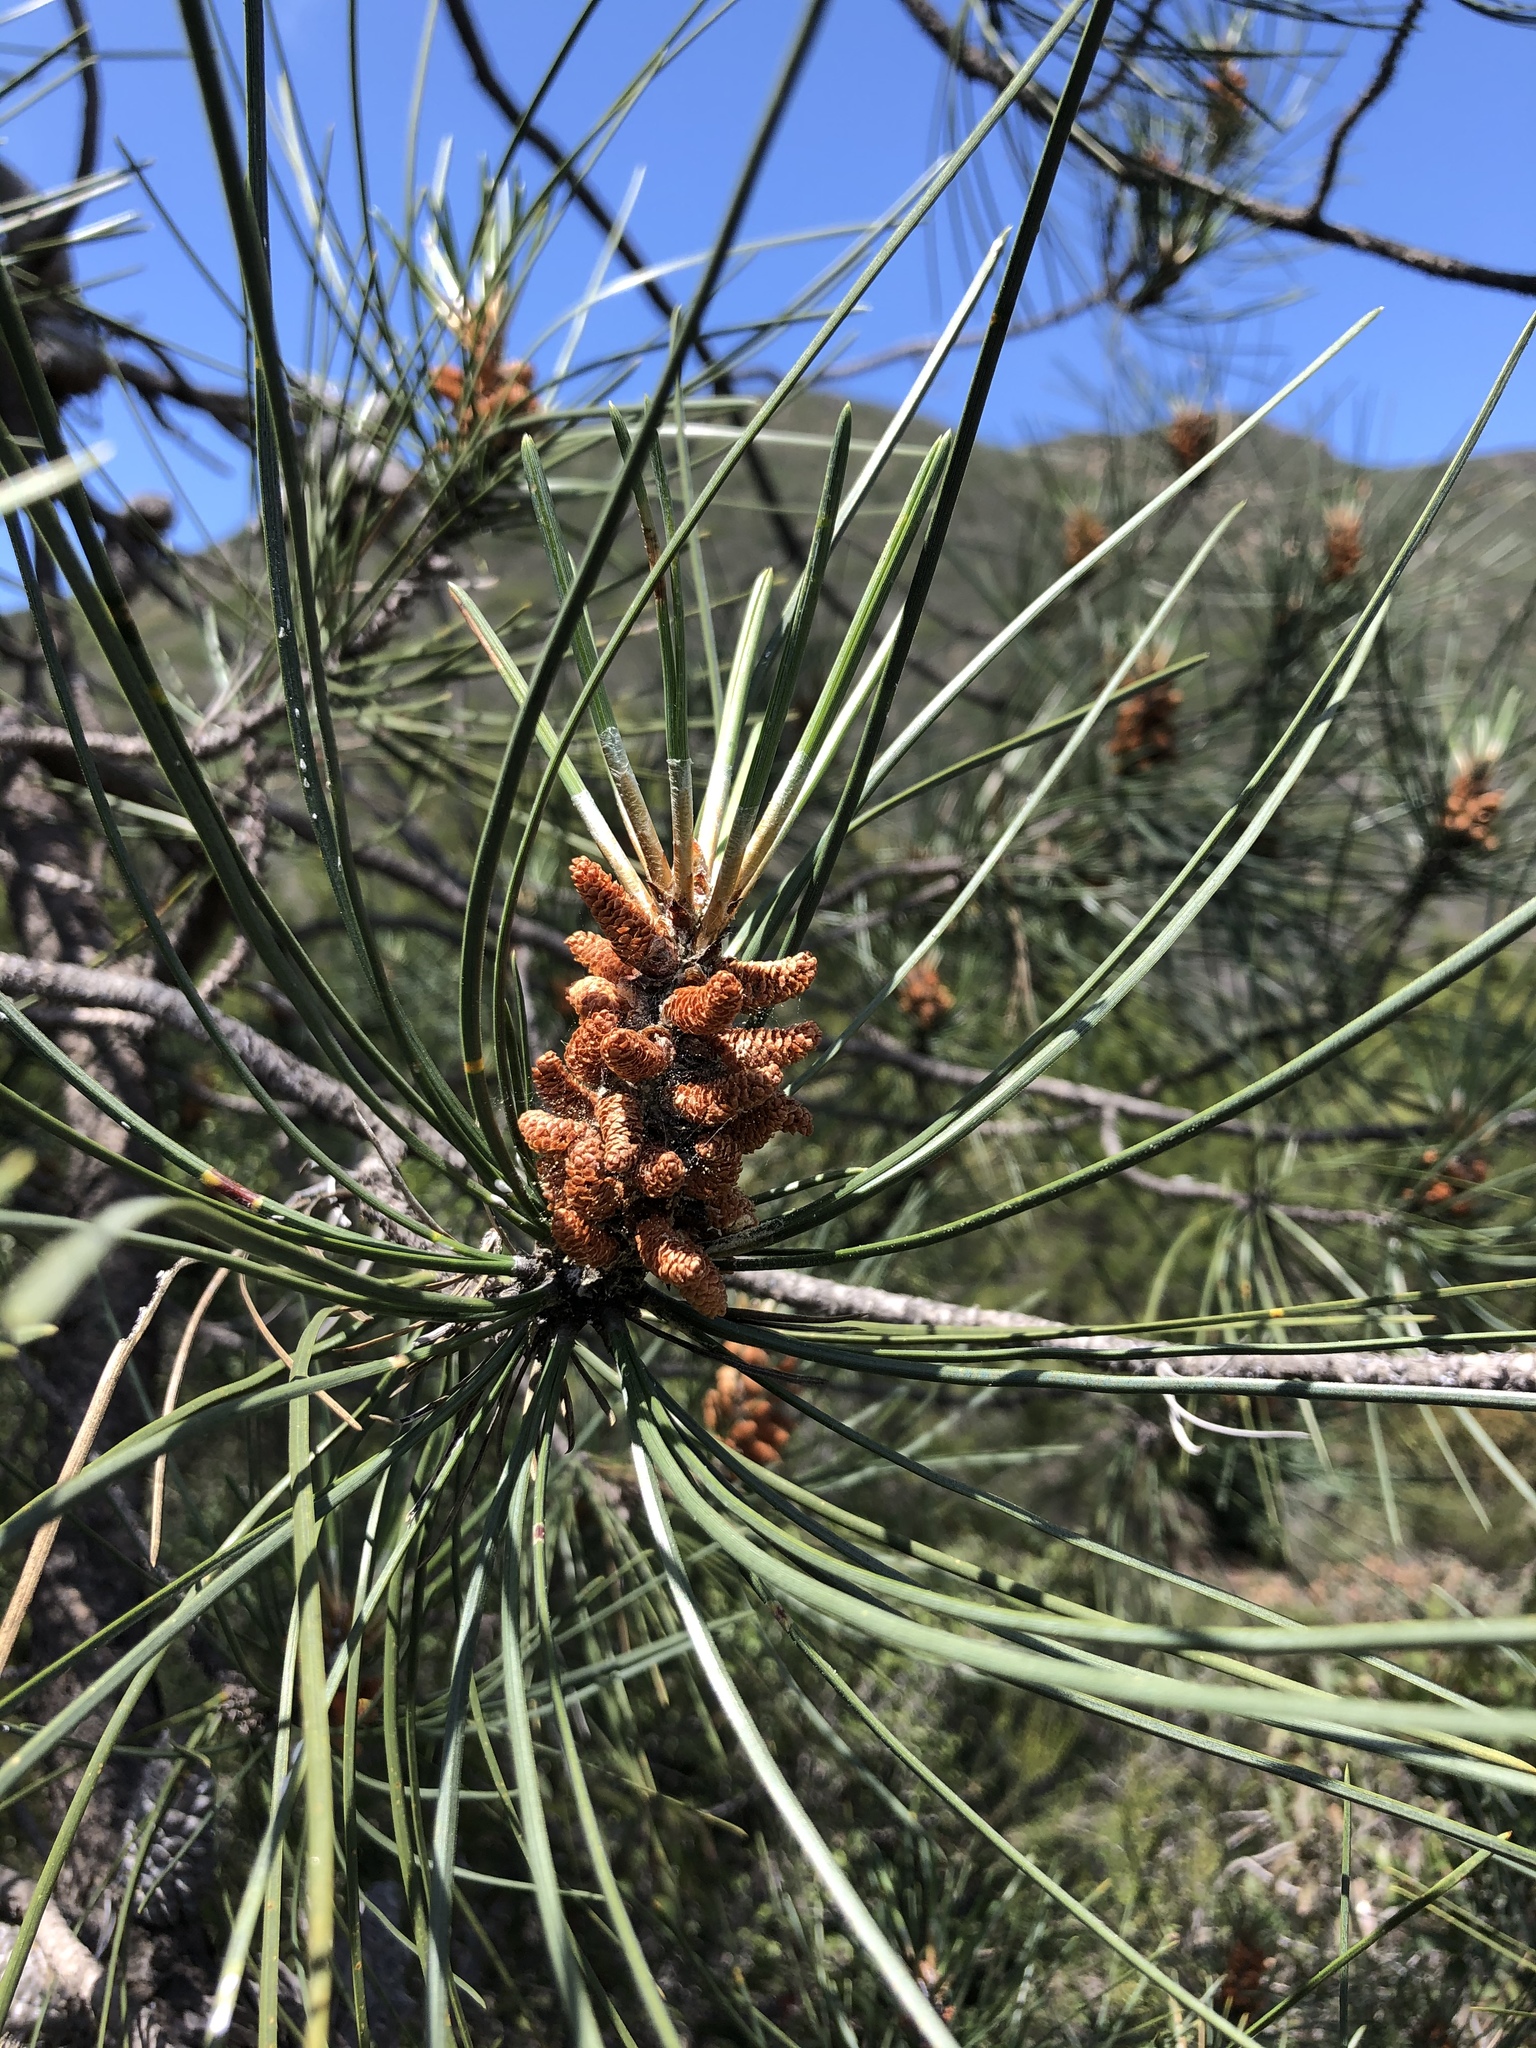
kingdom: Plantae
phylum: Tracheophyta
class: Pinopsida
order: Pinales
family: Pinaceae
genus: Pinus
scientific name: Pinus attenuata
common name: Knobcone pine
